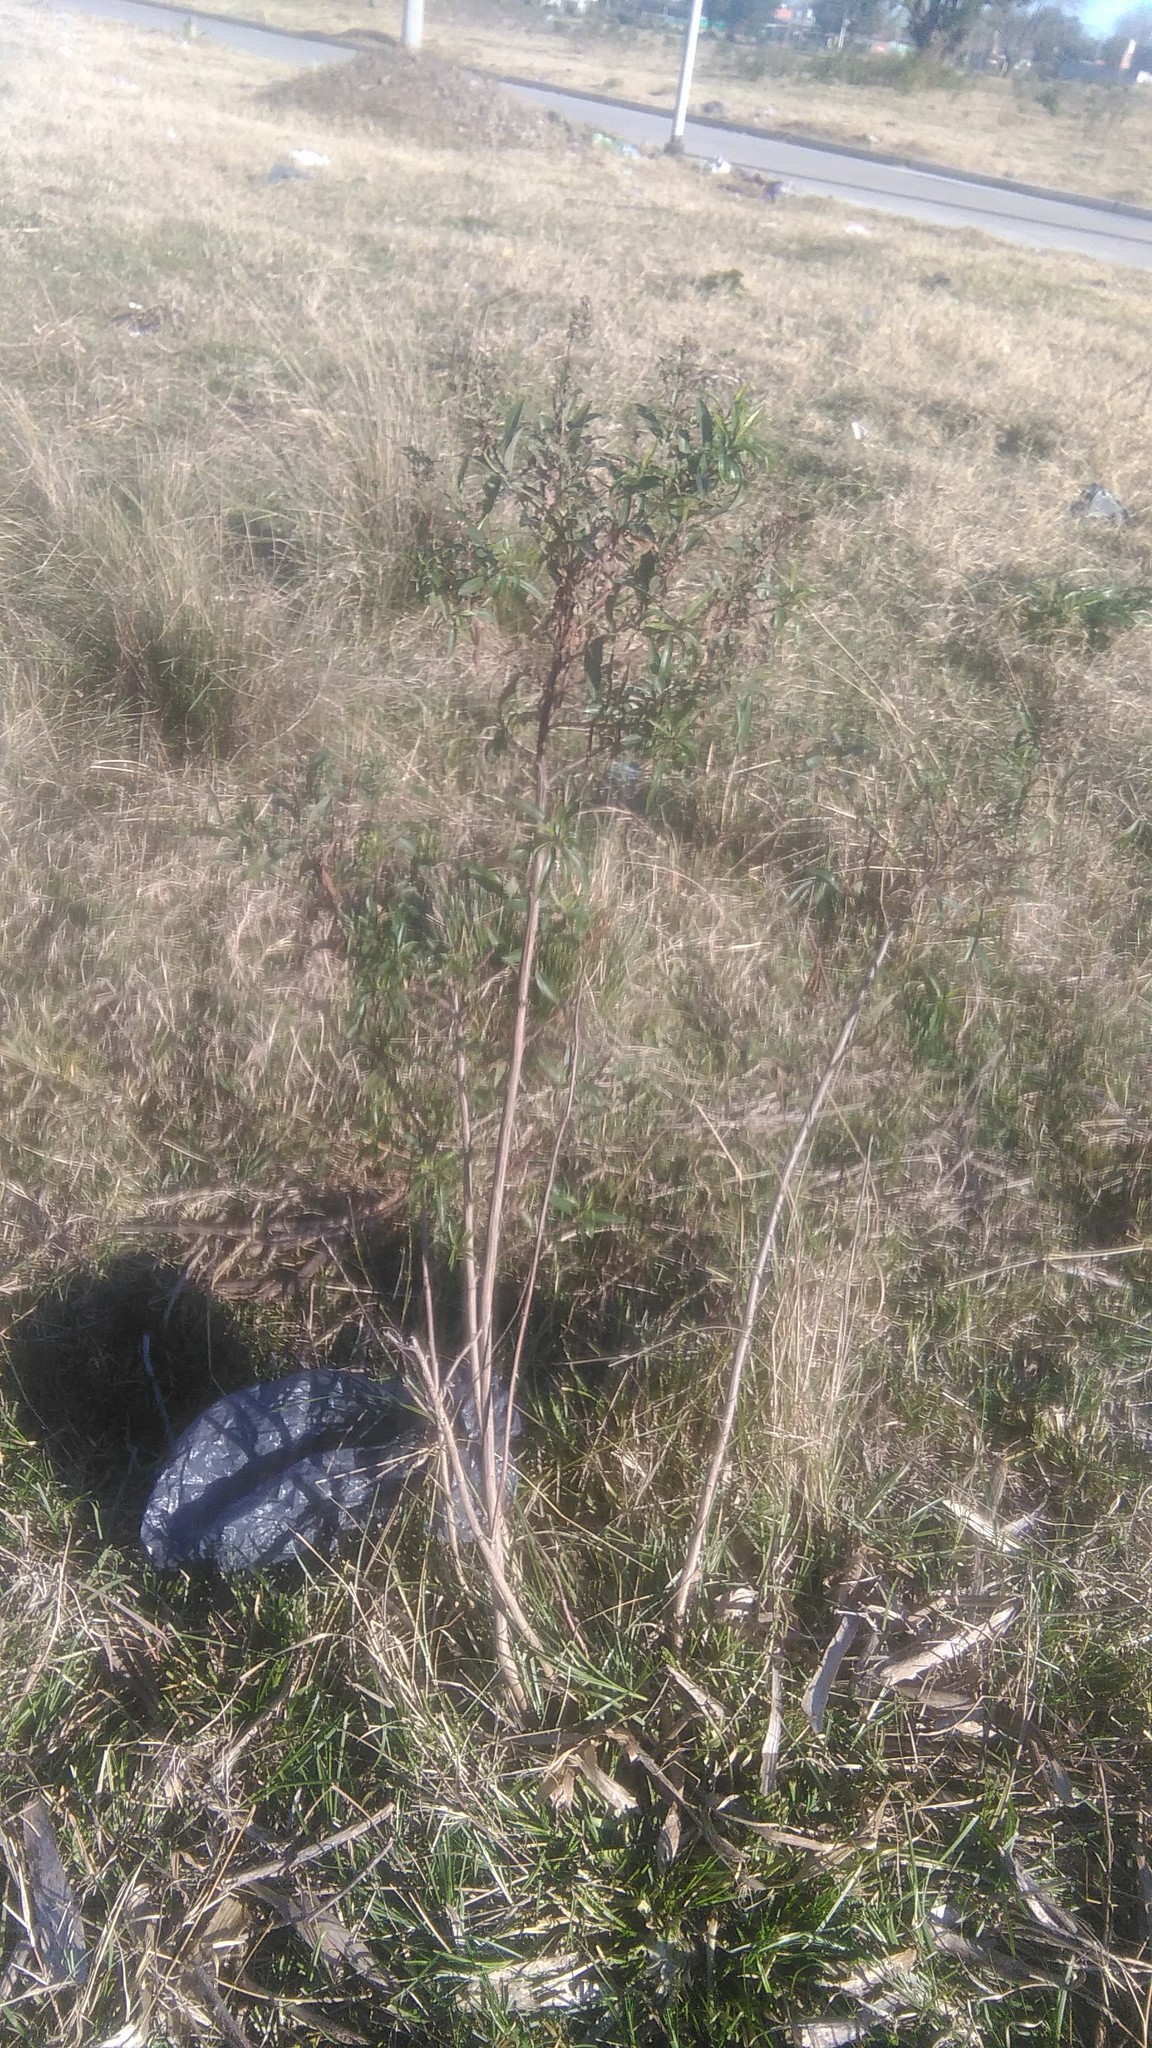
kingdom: Plantae
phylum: Tracheophyta
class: Magnoliopsida
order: Asterales
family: Asteraceae
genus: Baccharis
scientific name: Baccharis punctulata
